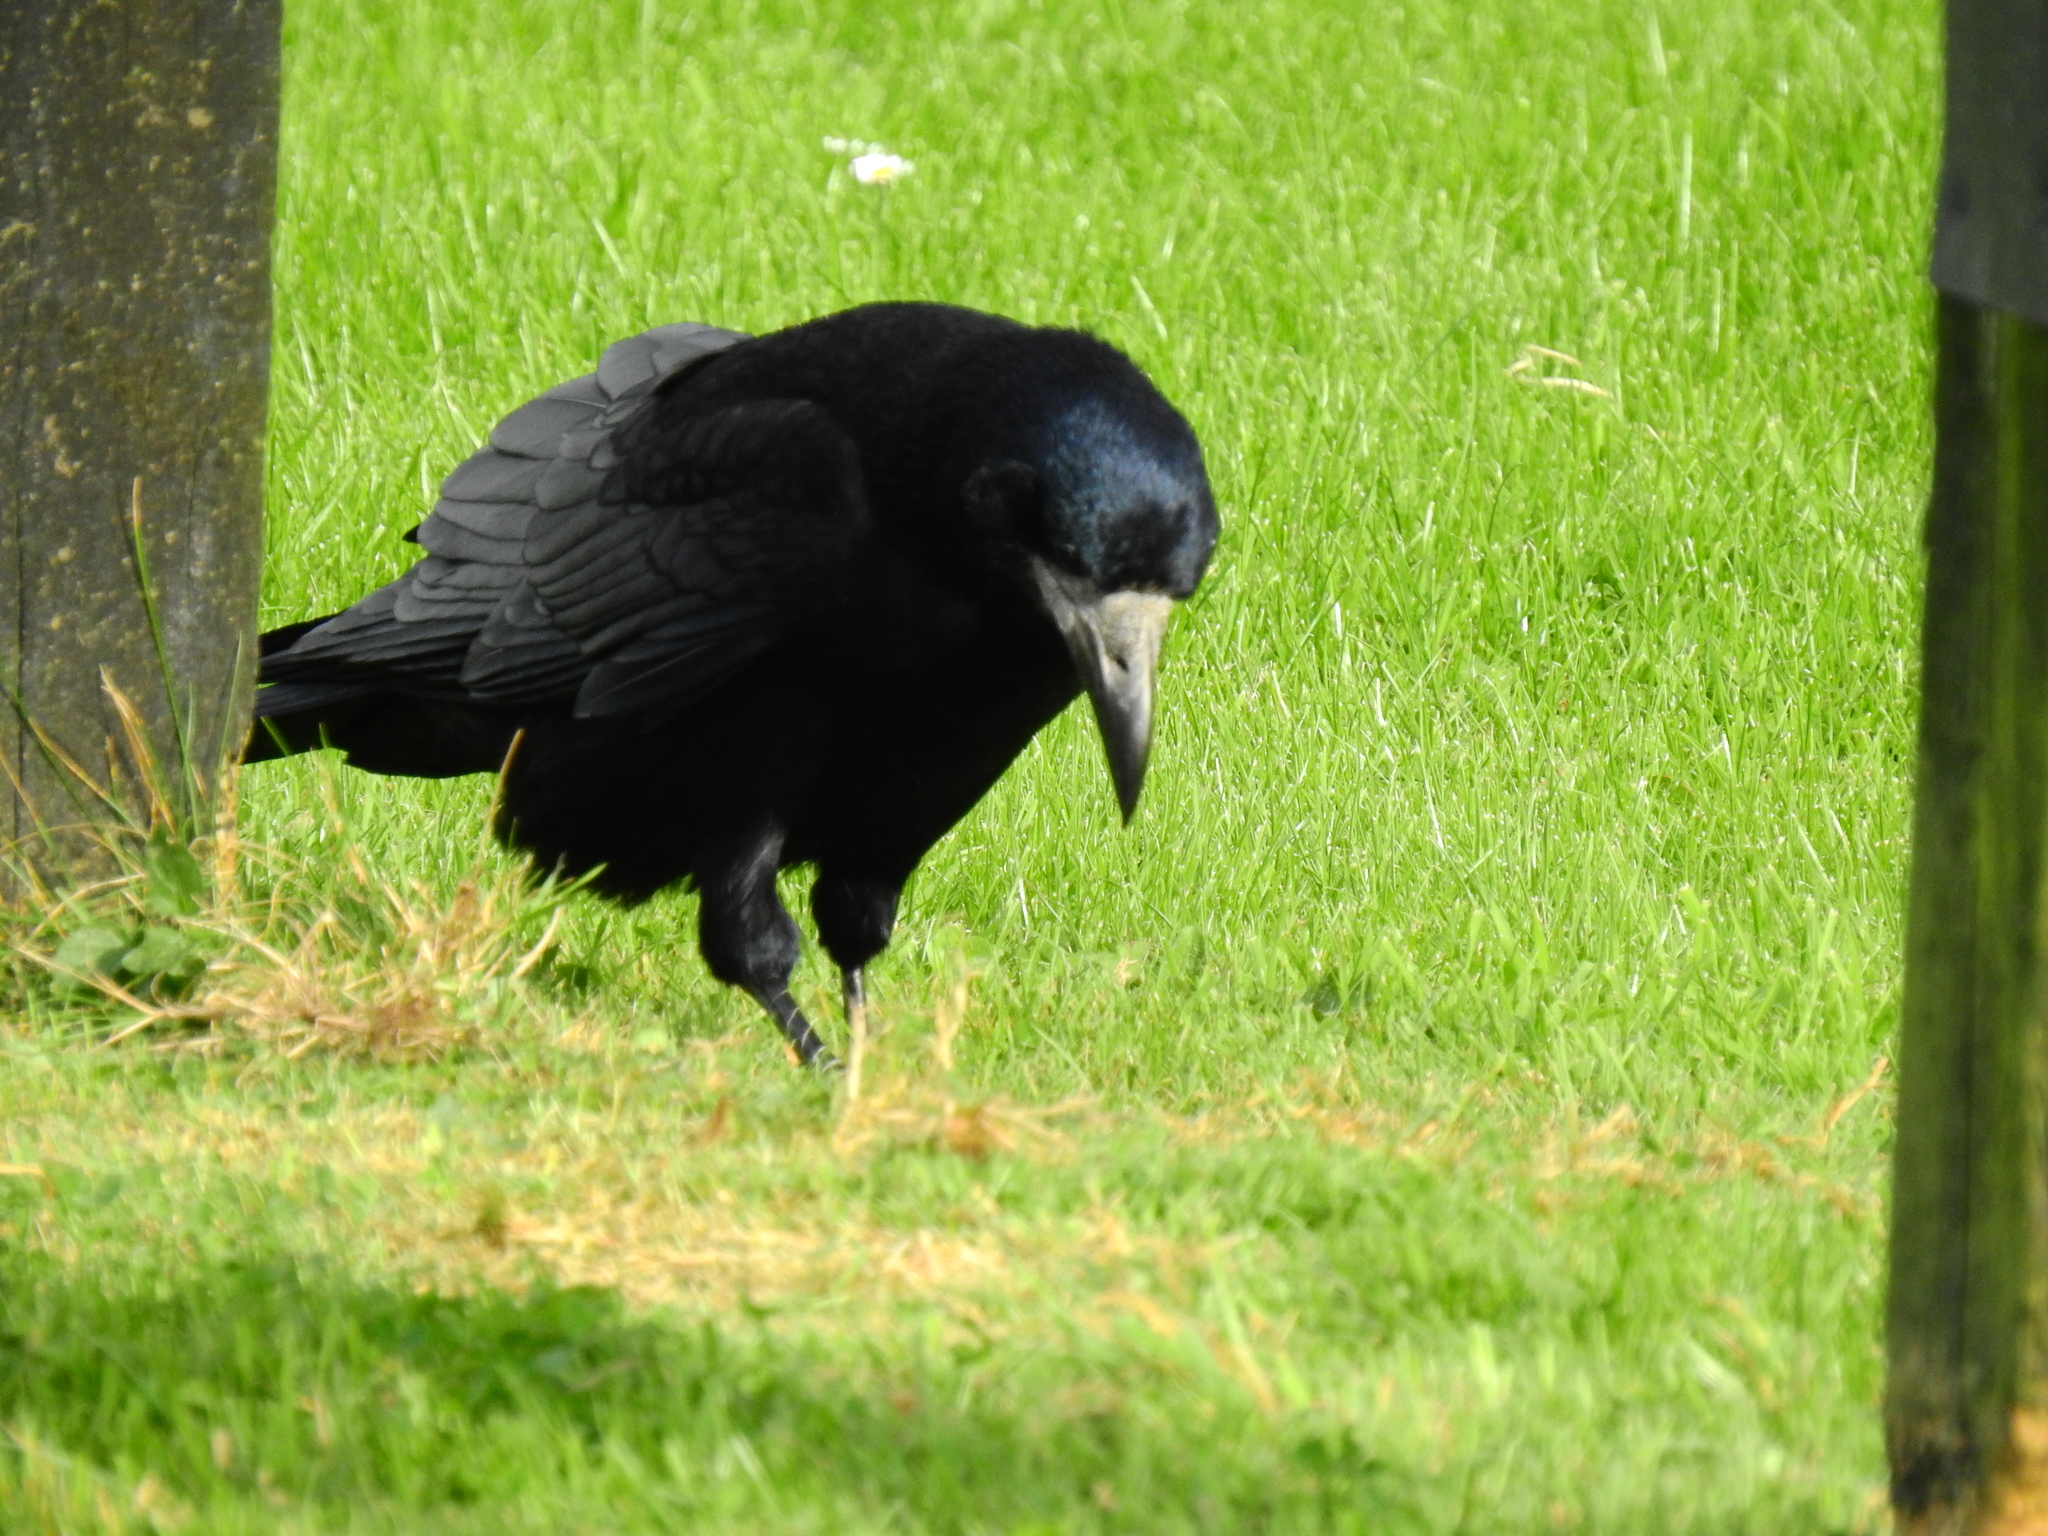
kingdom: Animalia
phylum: Chordata
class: Aves
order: Passeriformes
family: Corvidae
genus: Corvus
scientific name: Corvus frugilegus
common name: Rook
